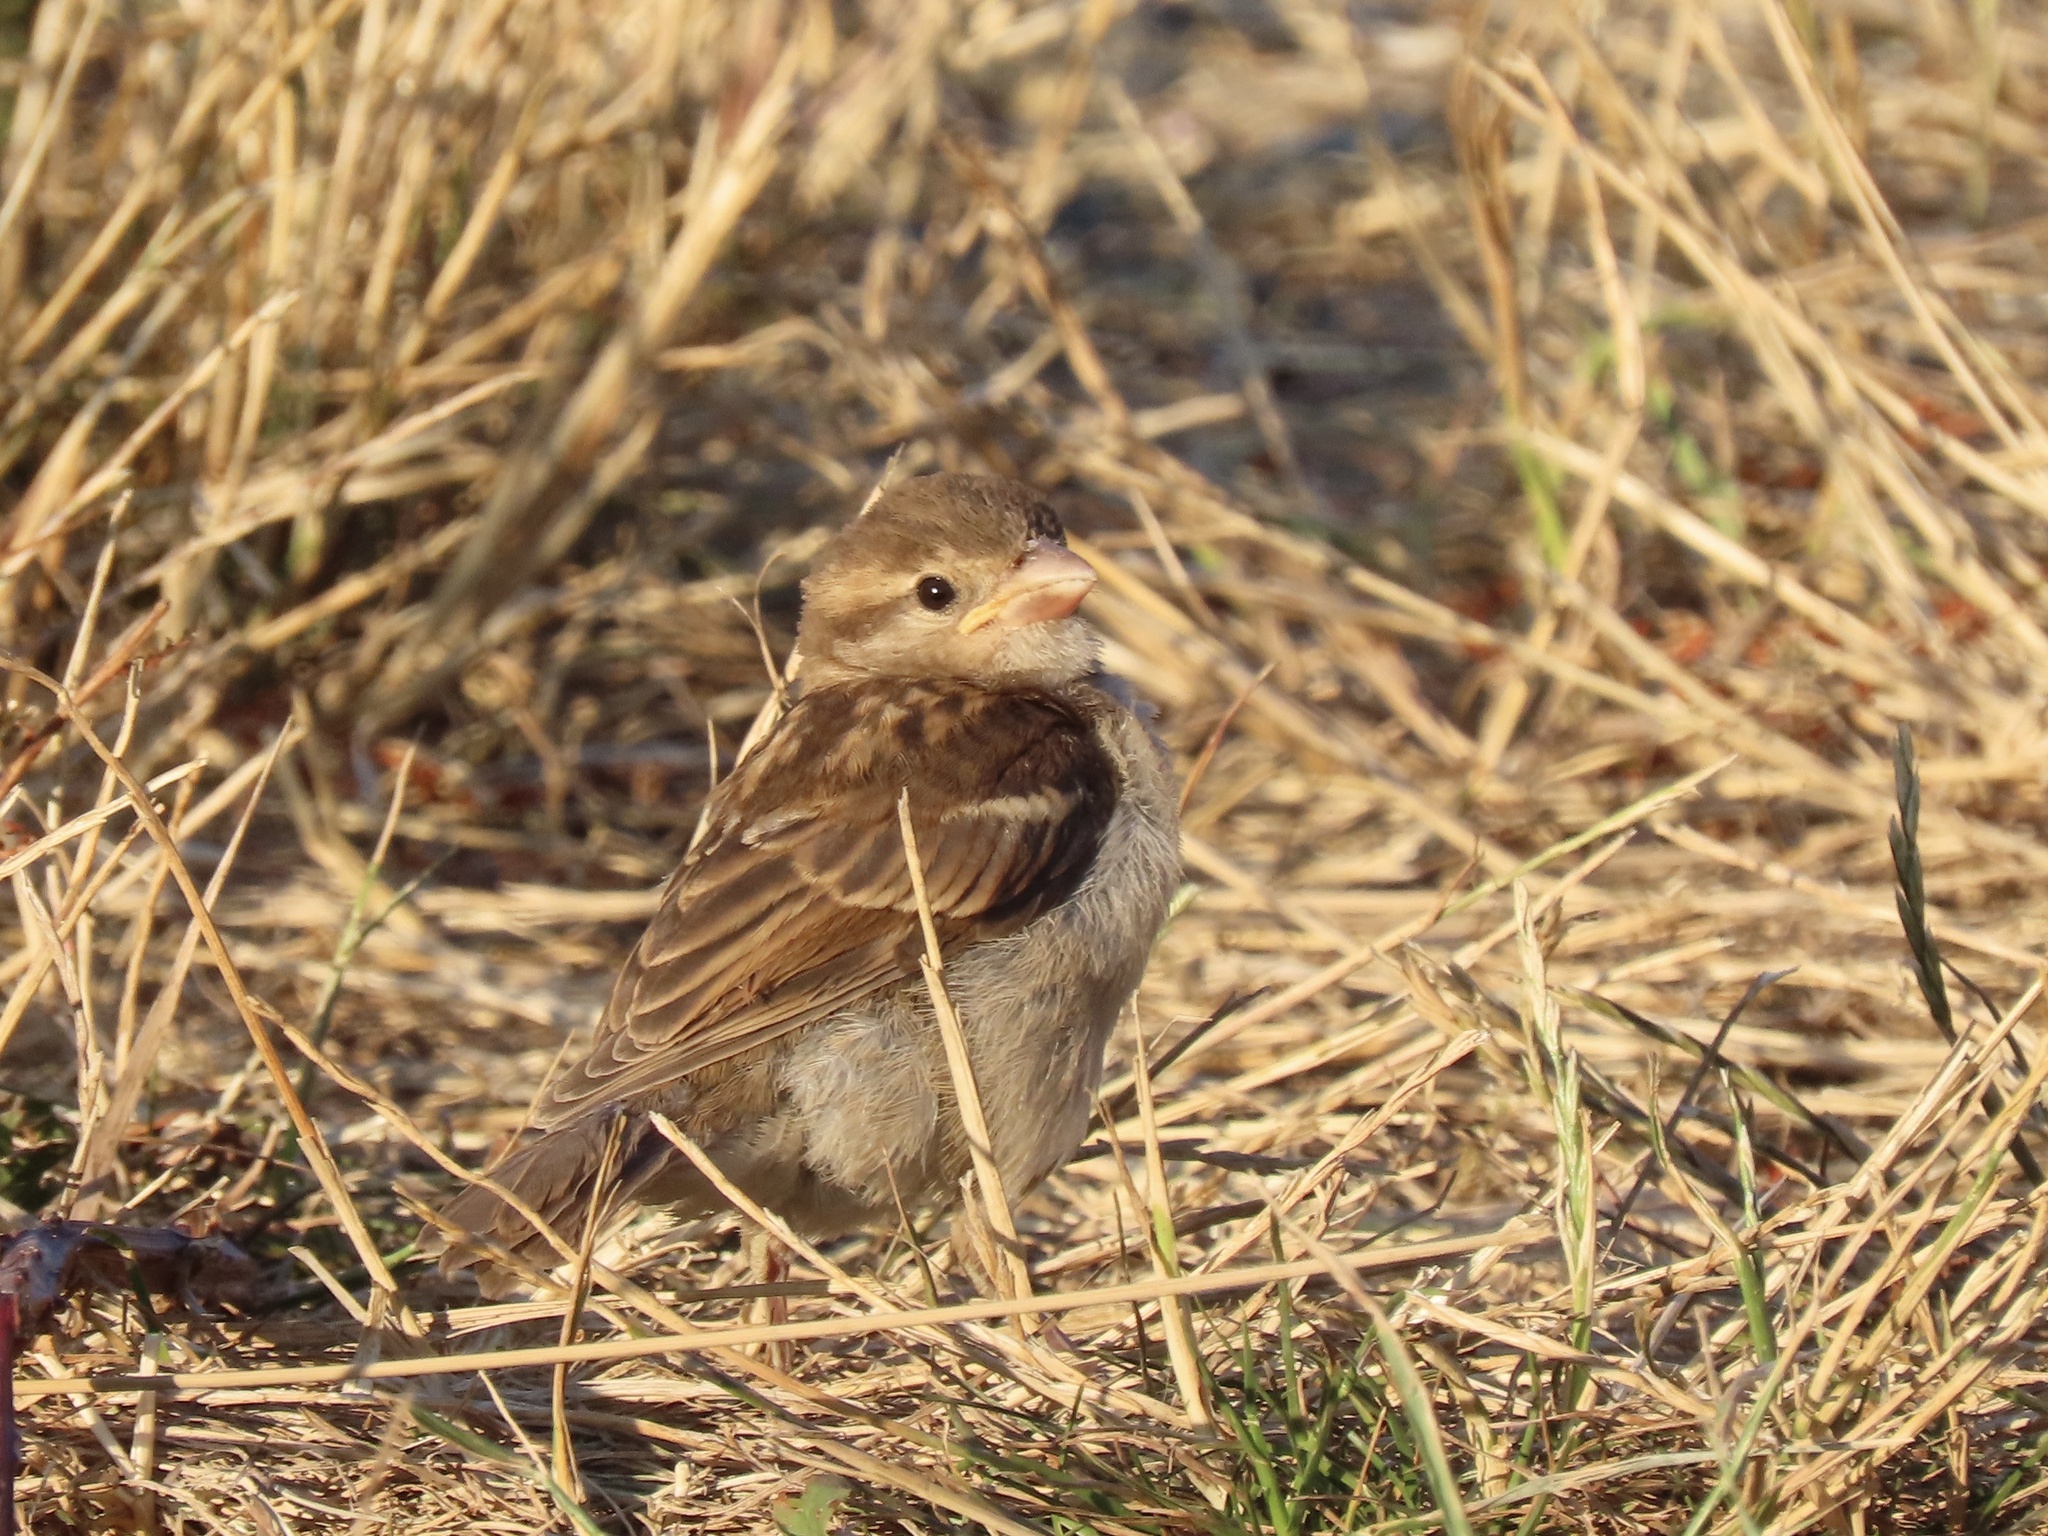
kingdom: Animalia
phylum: Chordata
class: Aves
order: Passeriformes
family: Passeridae
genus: Passer
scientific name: Passer domesticus
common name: House sparrow
